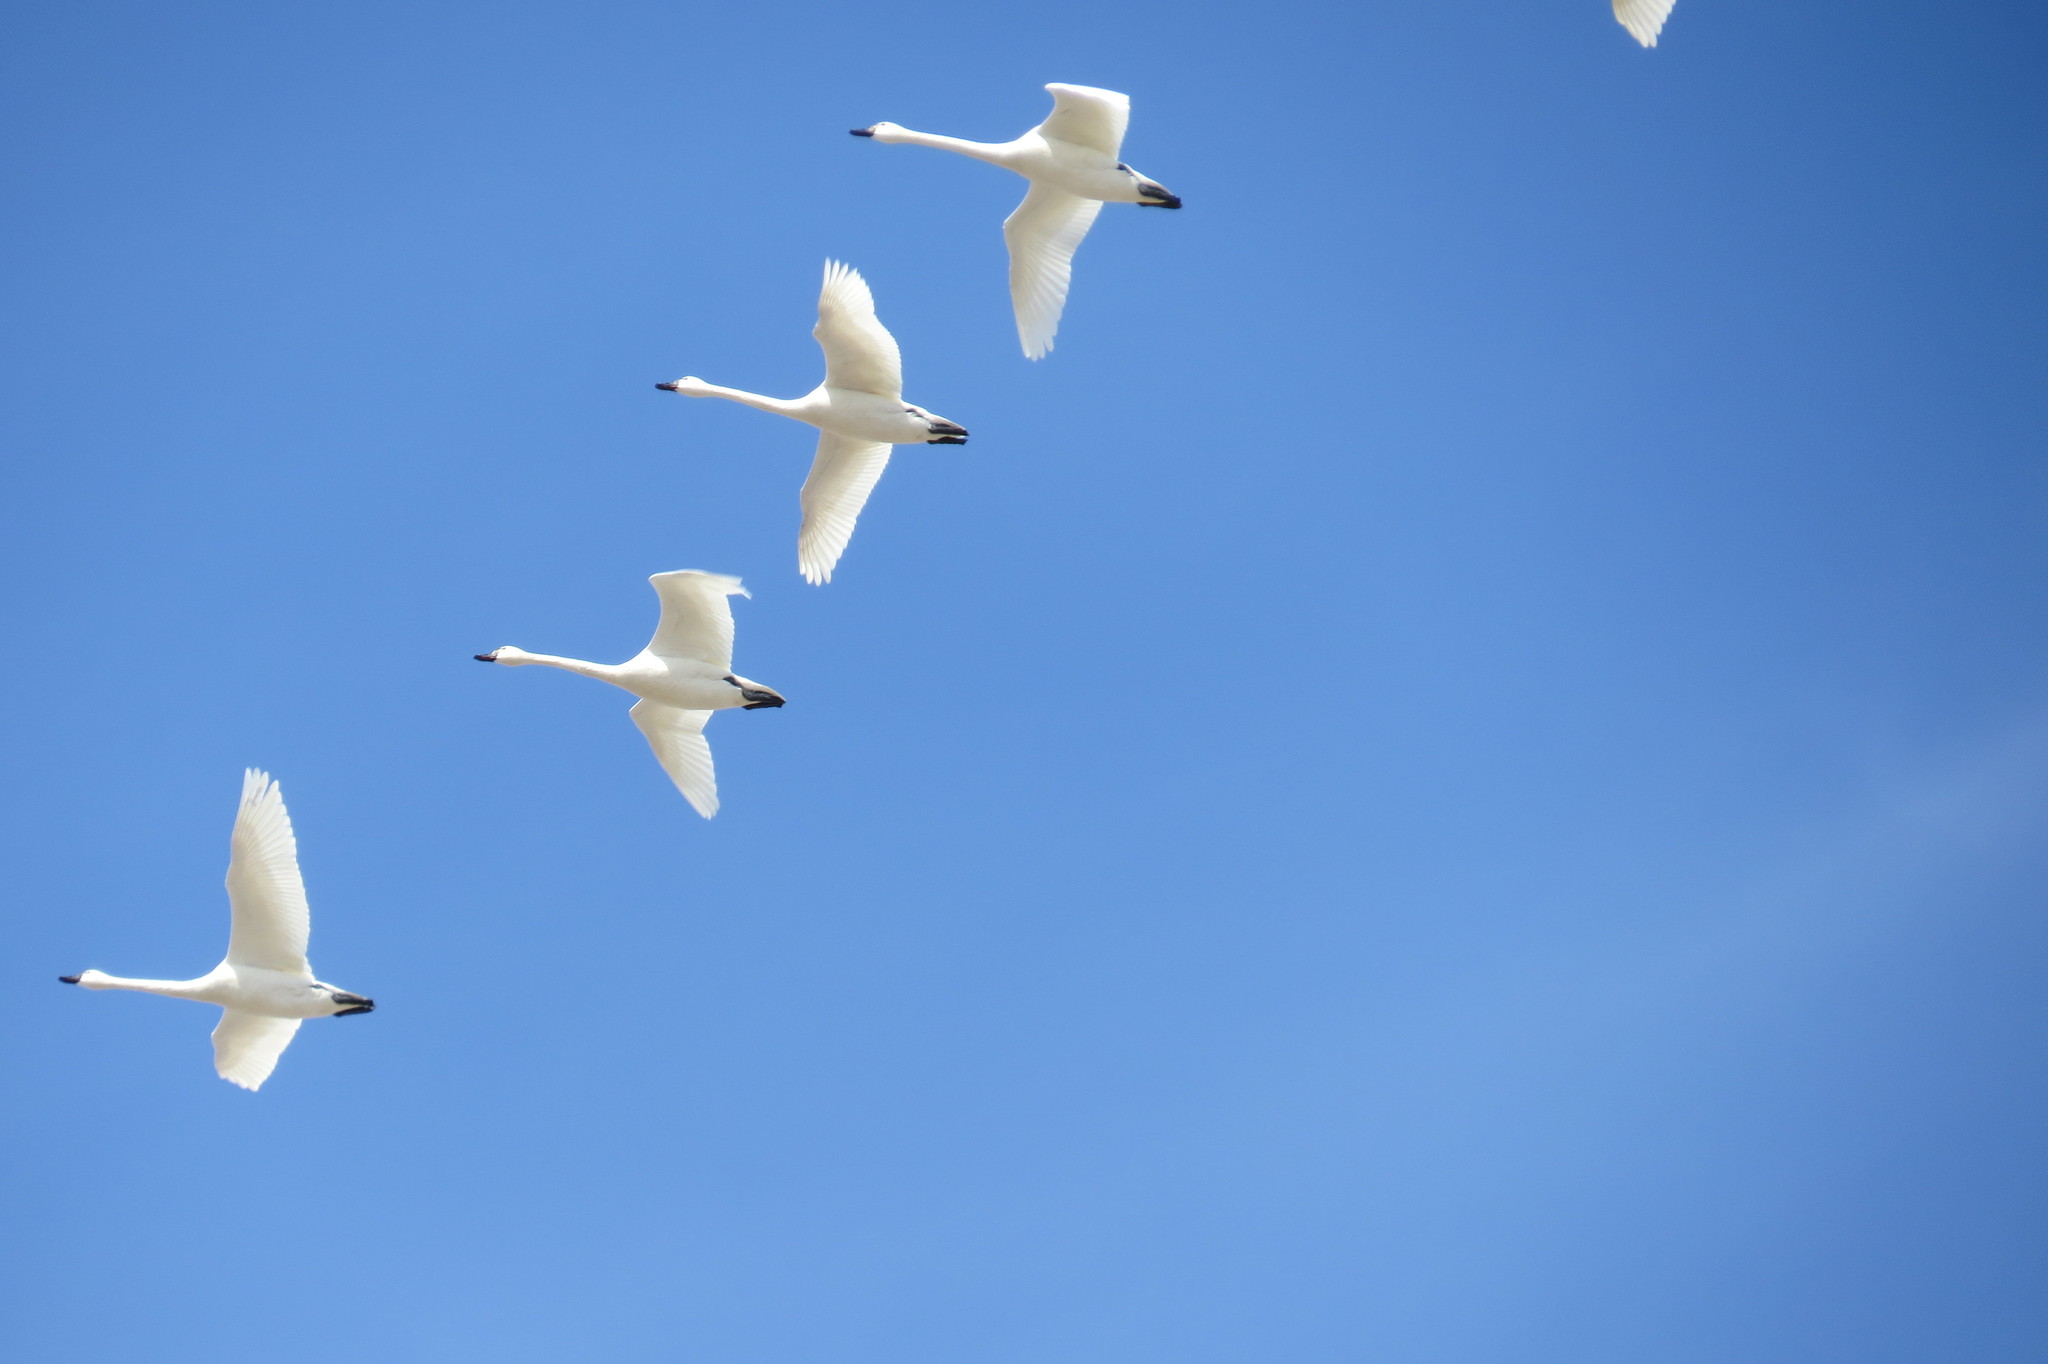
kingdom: Animalia
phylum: Chordata
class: Aves
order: Anseriformes
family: Anatidae
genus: Cygnus
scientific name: Cygnus buccinator
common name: Trumpeter swan
